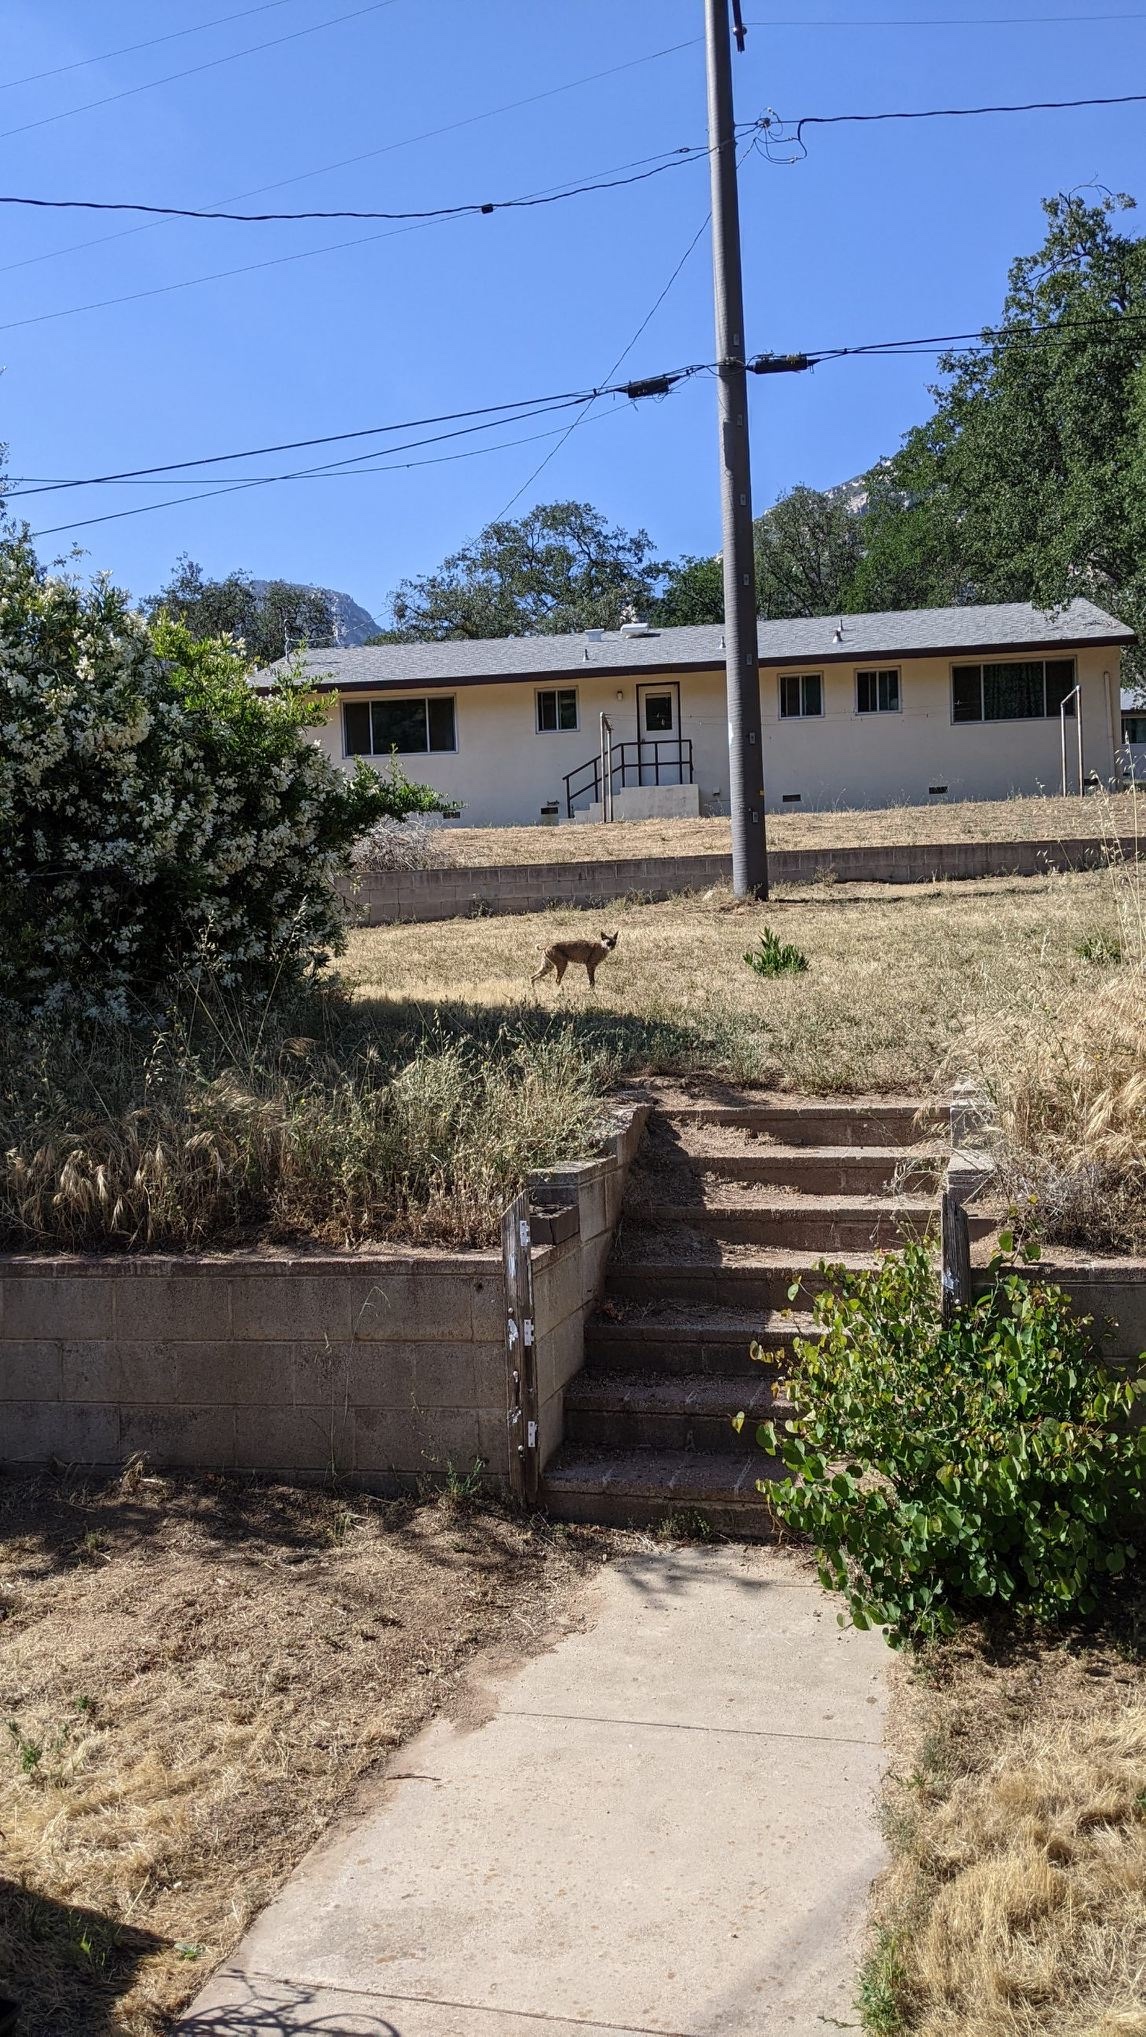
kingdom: Animalia
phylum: Chordata
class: Mammalia
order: Carnivora
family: Felidae
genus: Lynx
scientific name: Lynx rufus
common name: Bobcat
